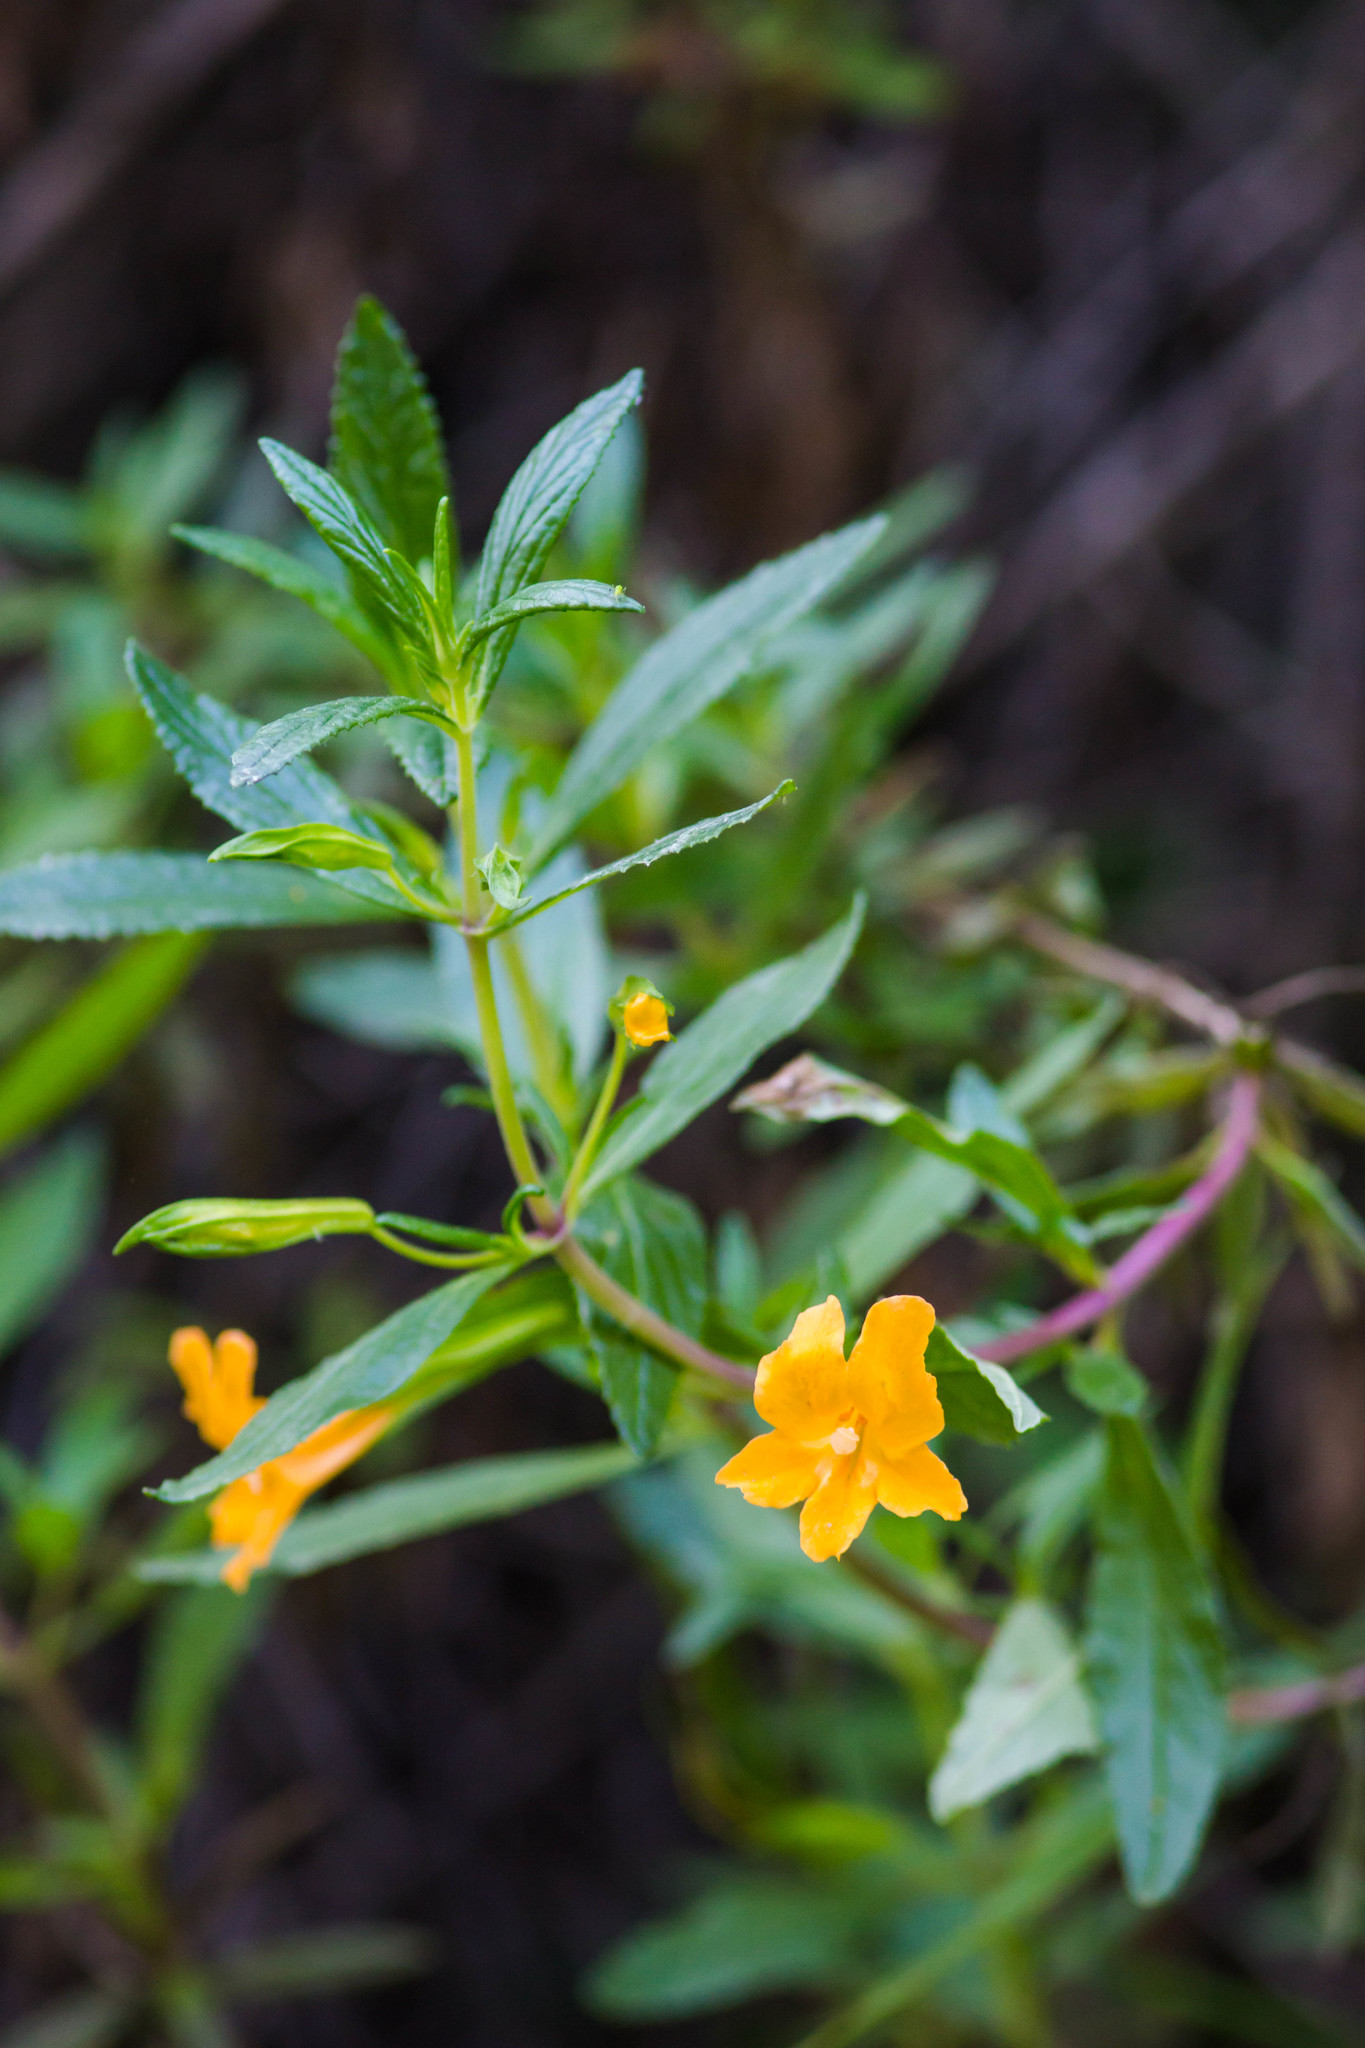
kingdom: Plantae
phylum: Tracheophyta
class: Magnoliopsida
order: Lamiales
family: Phrymaceae
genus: Diplacus
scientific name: Diplacus aurantiacus
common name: Bush monkey-flower
